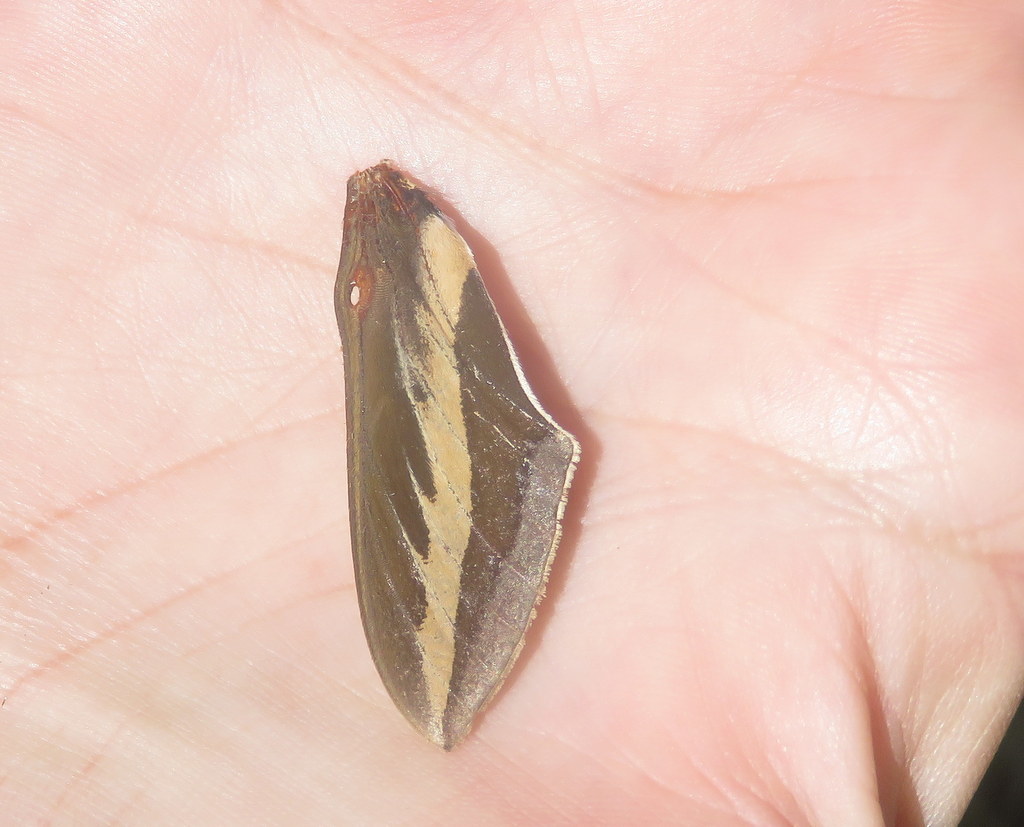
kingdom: Animalia
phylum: Arthropoda
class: Insecta
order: Lepidoptera
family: Sphingidae
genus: Hyles
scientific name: Hyles euphorbiarum
